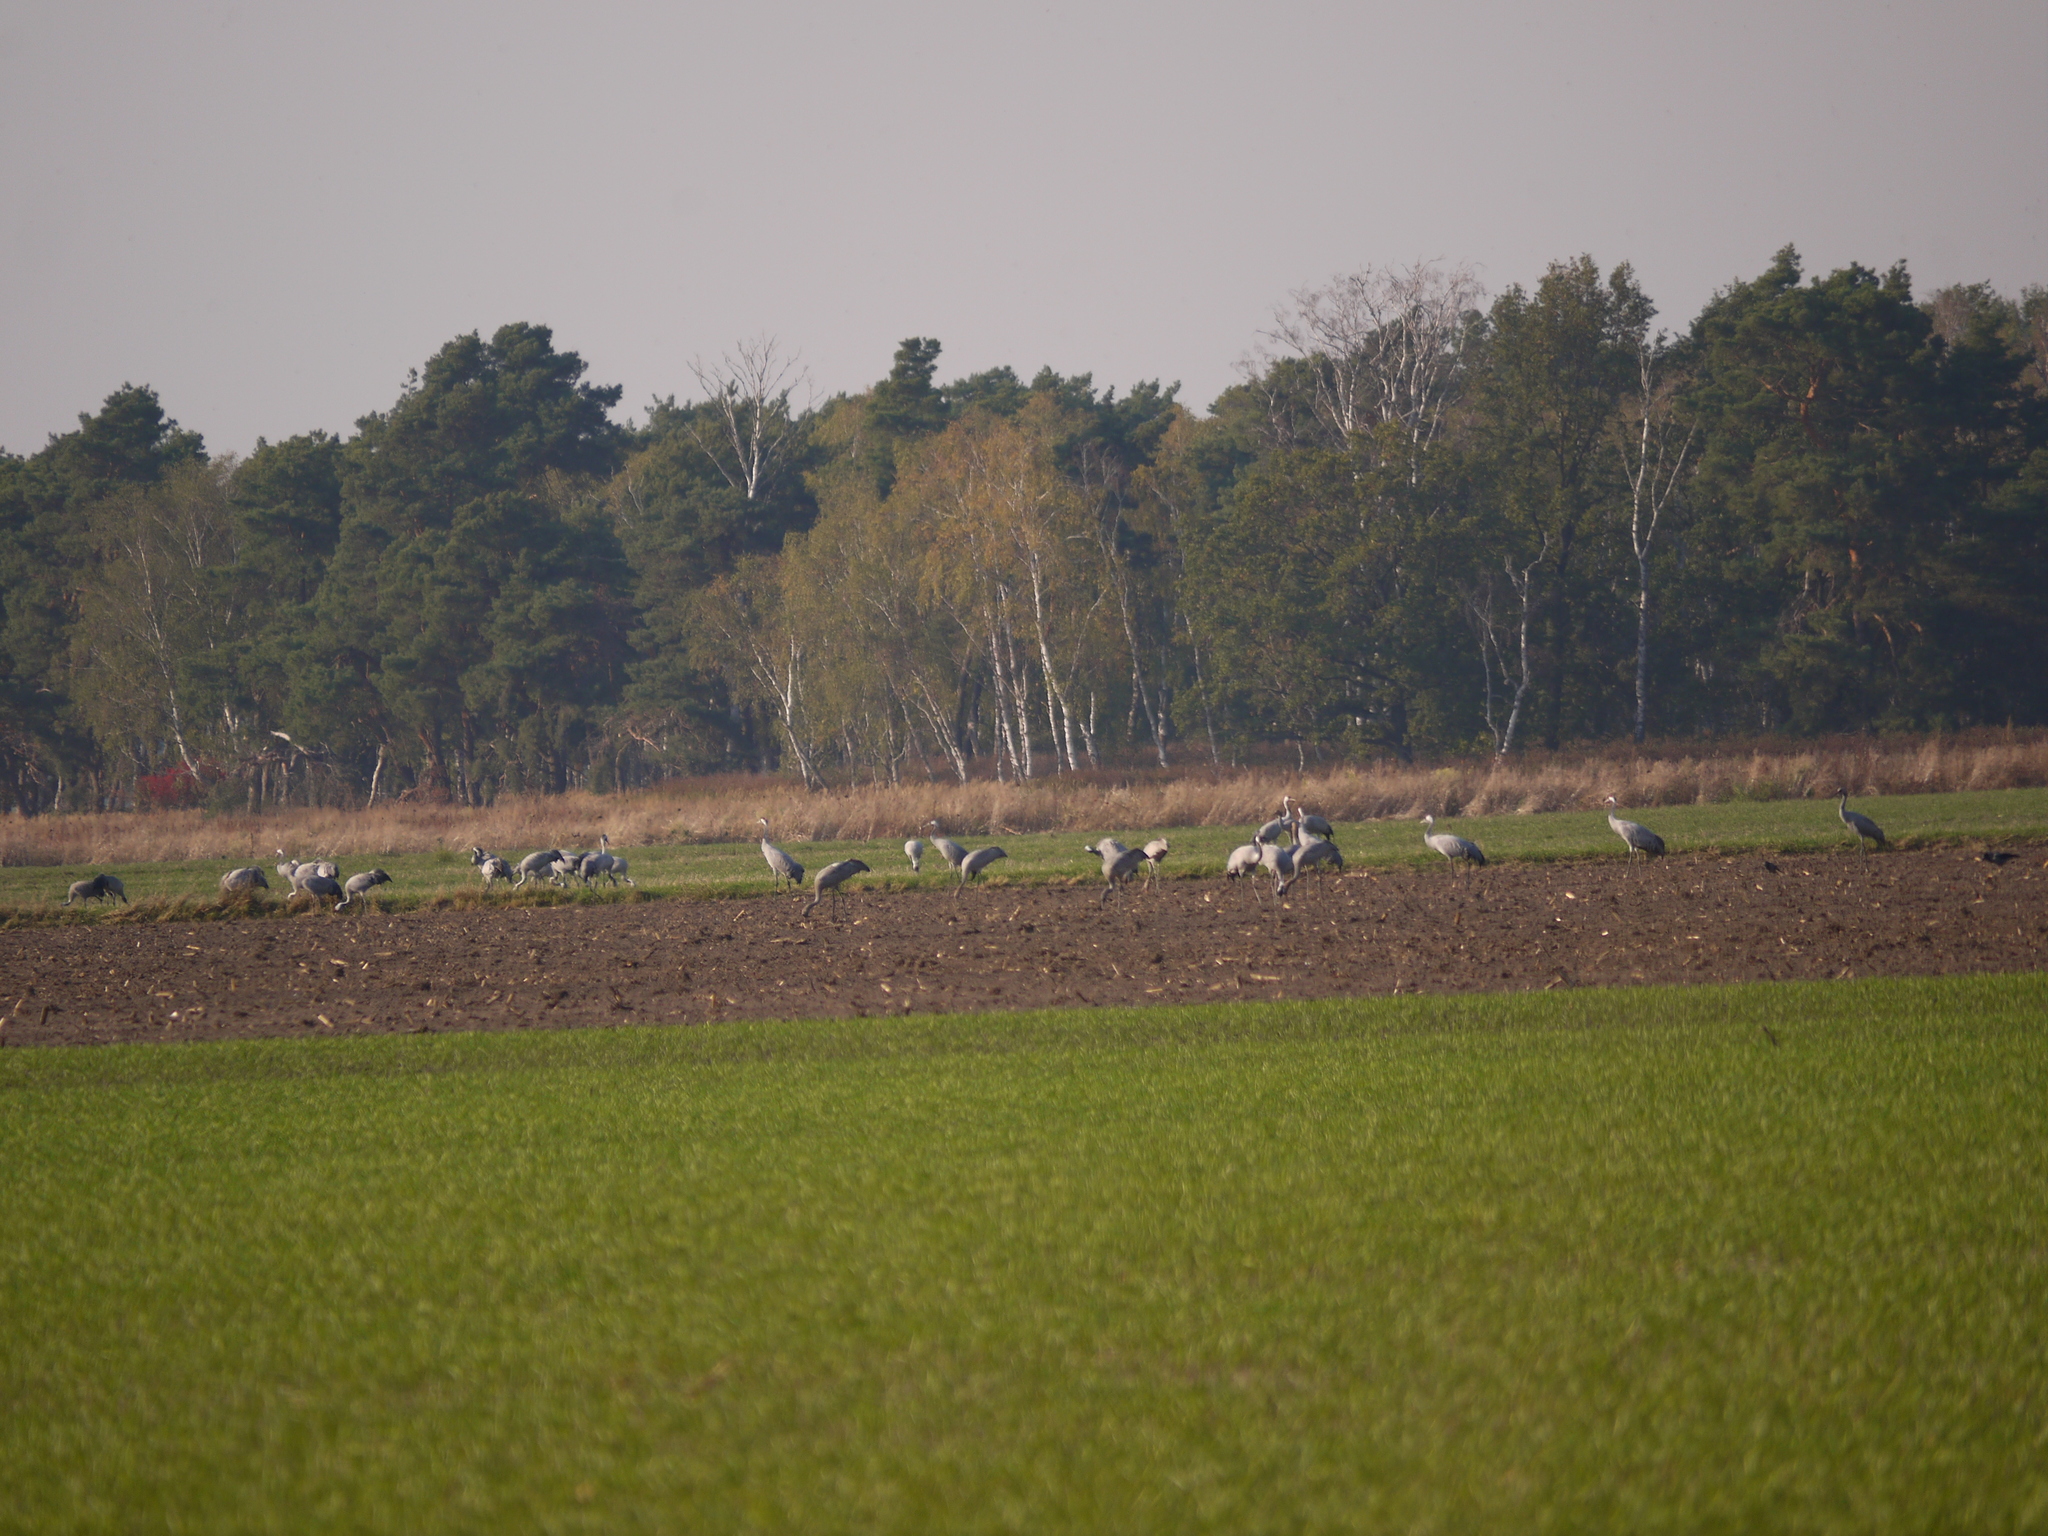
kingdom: Animalia
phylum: Chordata
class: Aves
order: Gruiformes
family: Gruidae
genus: Grus
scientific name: Grus grus
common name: Common crane
